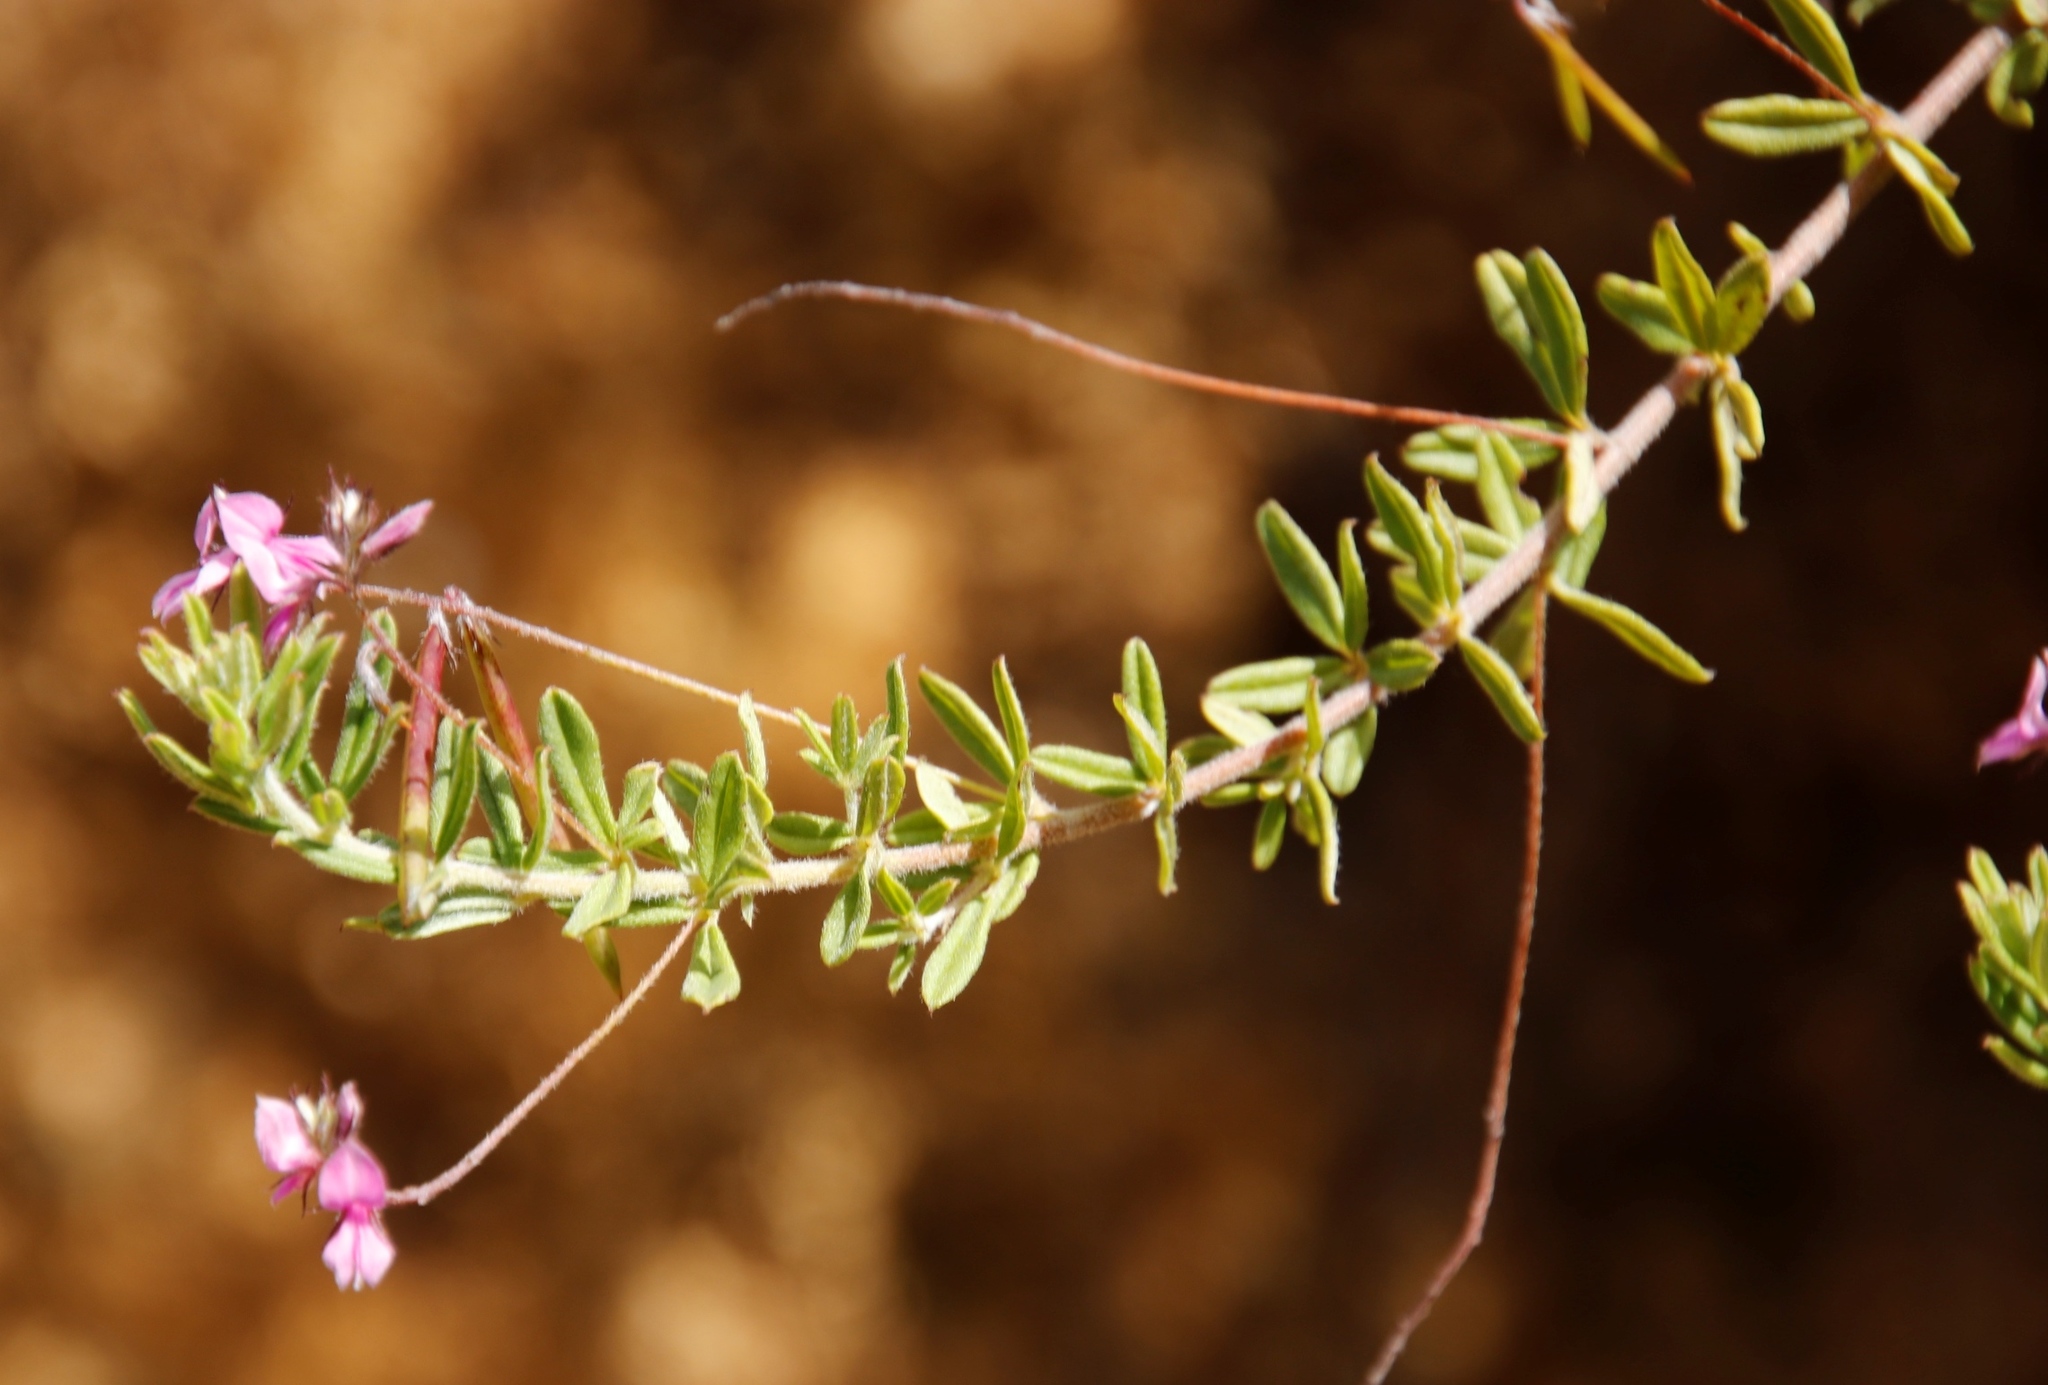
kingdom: Plantae
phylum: Tracheophyta
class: Magnoliopsida
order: Fabales
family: Fabaceae
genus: Indigofera
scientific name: Indigofera filiformis
